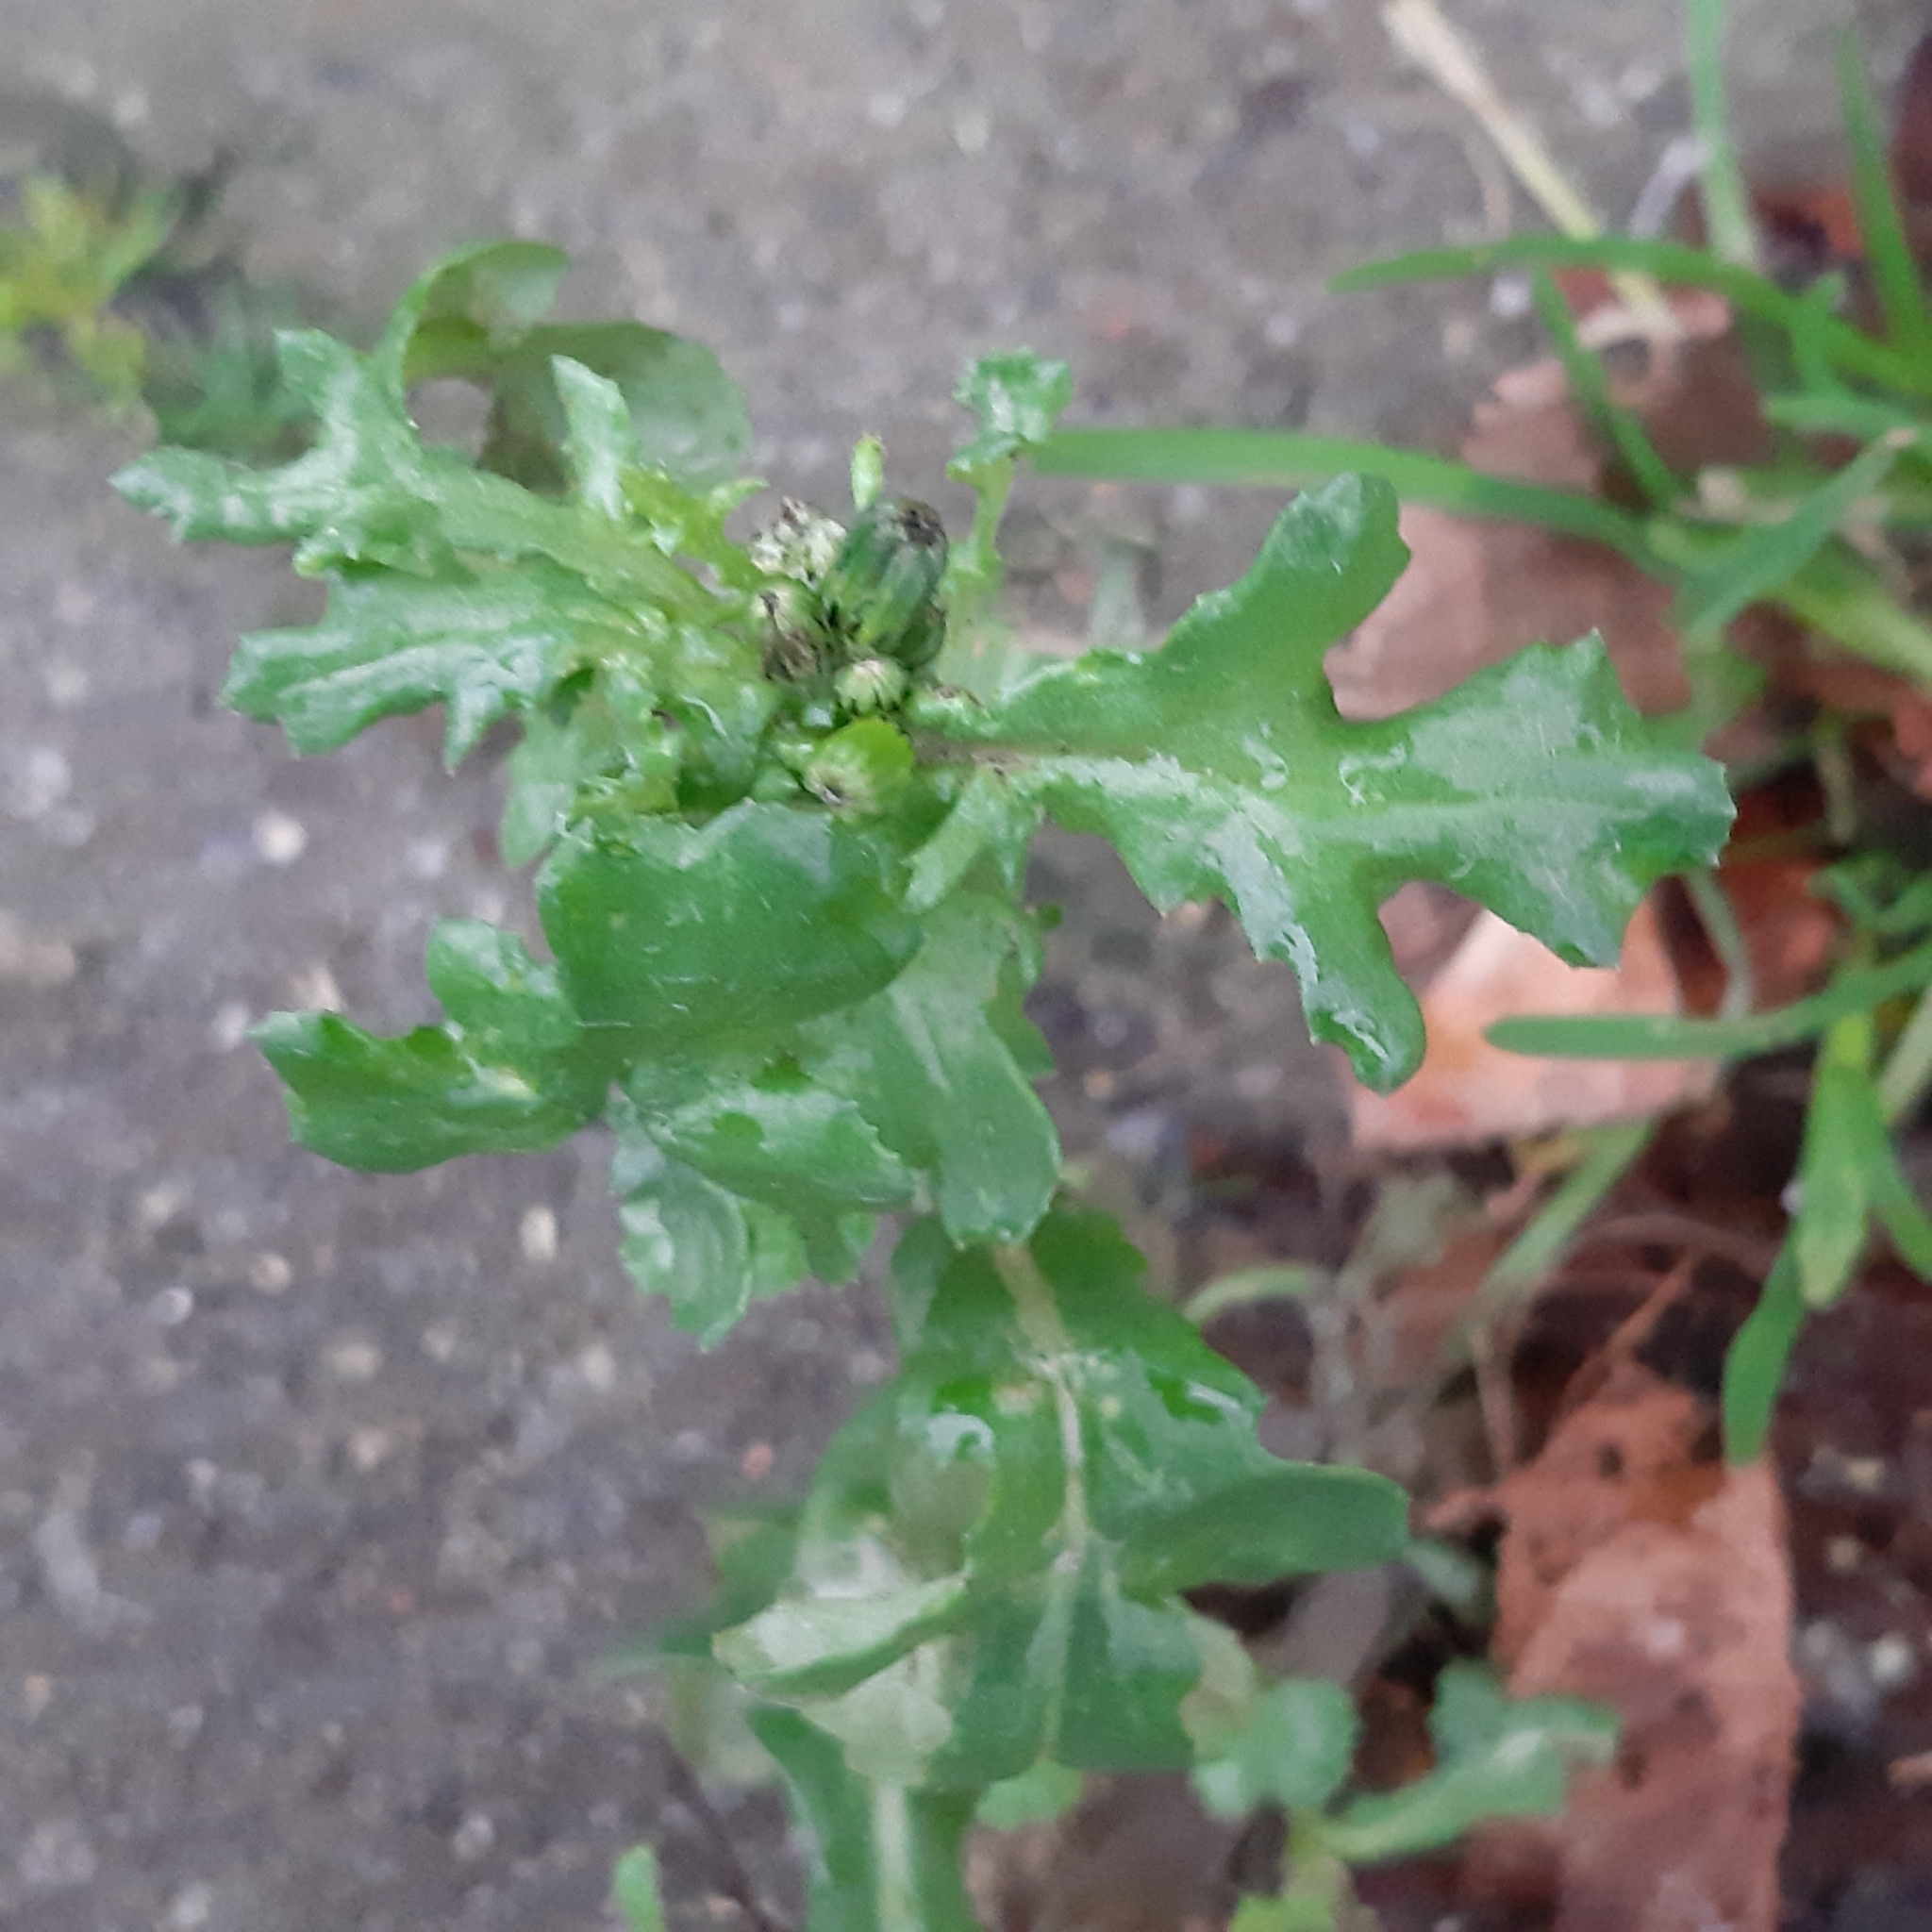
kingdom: Plantae
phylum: Tracheophyta
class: Magnoliopsida
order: Asterales
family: Asteraceae
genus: Senecio
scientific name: Senecio vulgaris
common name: Old-man-in-the-spring
